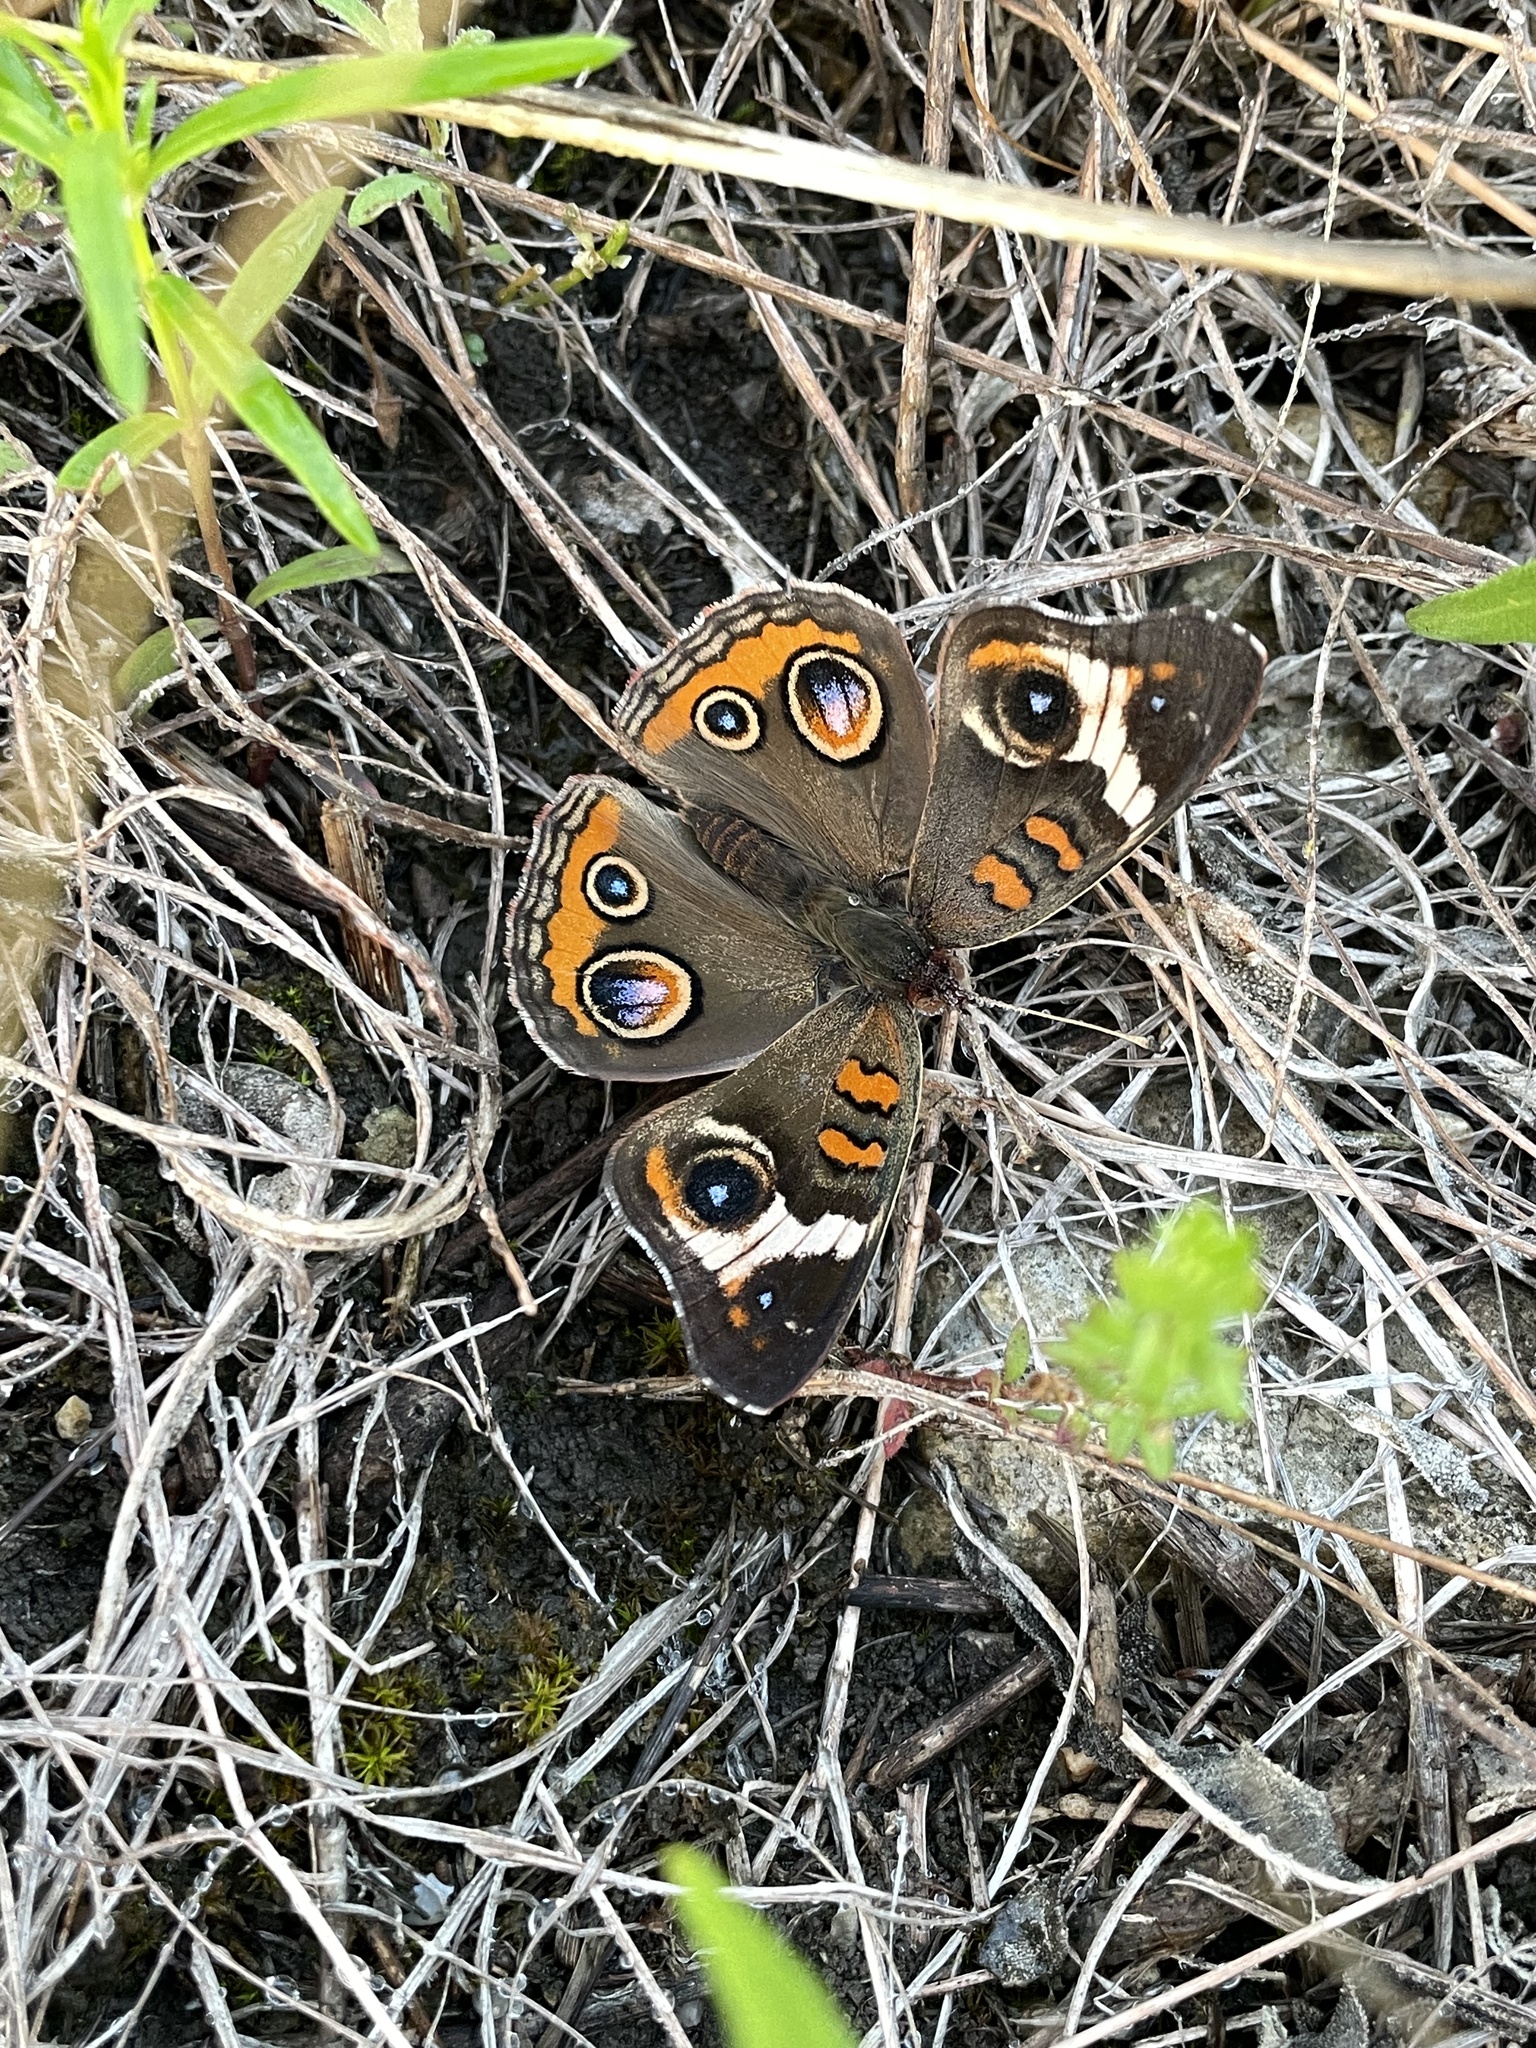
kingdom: Animalia
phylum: Arthropoda
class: Insecta
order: Lepidoptera
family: Nymphalidae
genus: Junonia
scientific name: Junonia coenia
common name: Common buckeye
